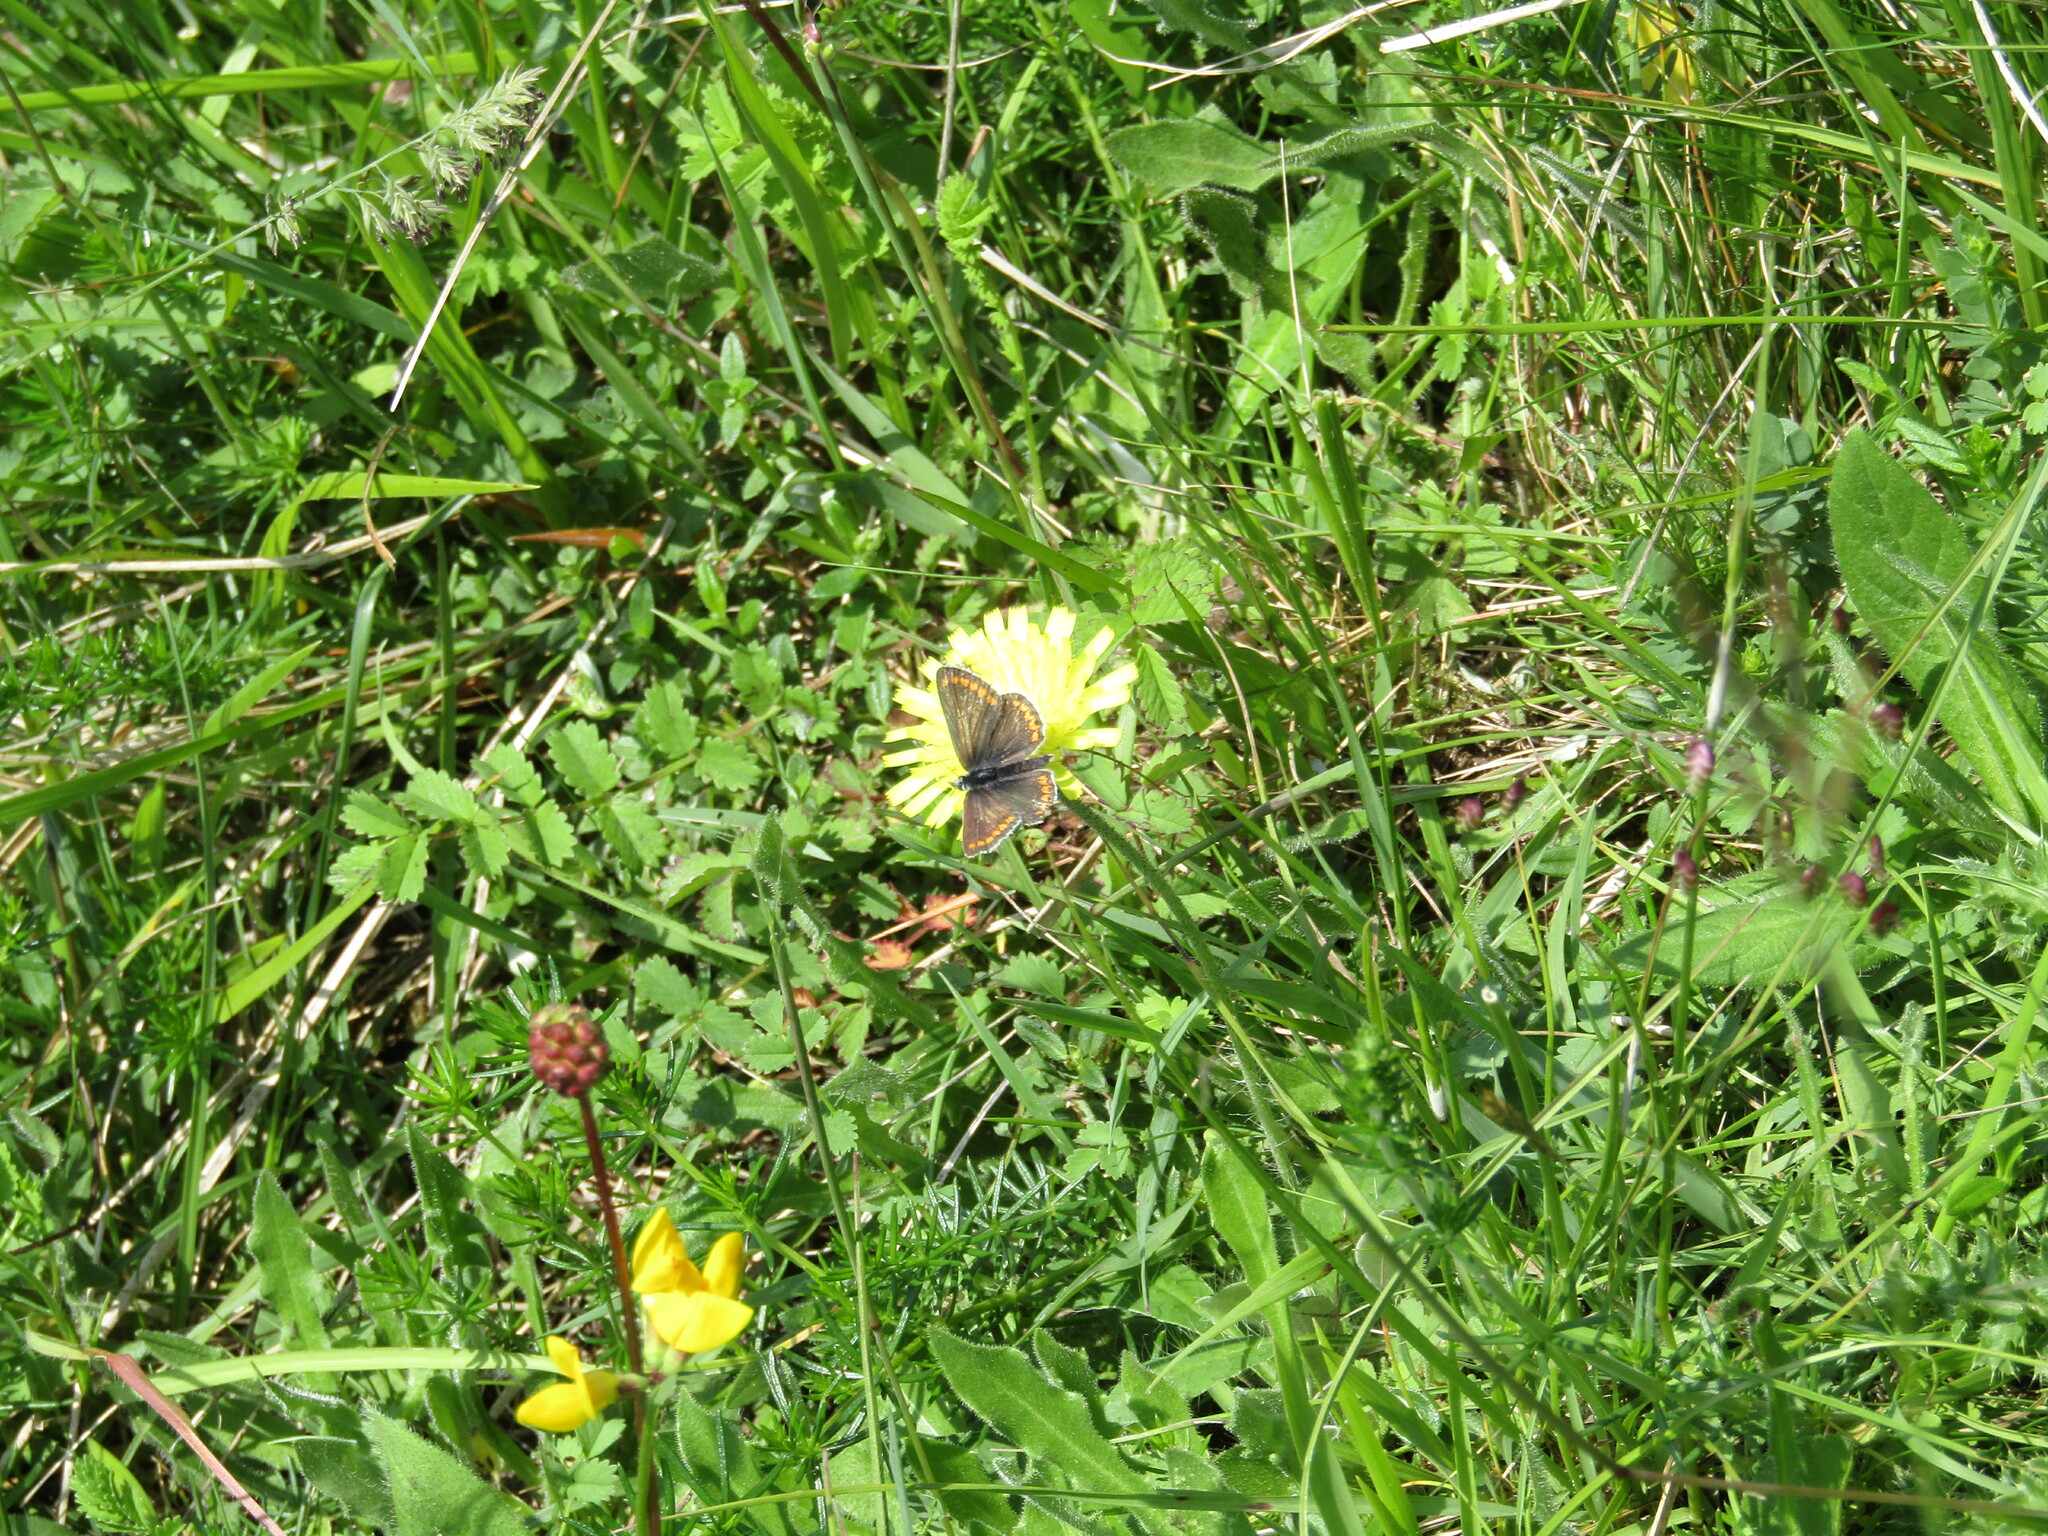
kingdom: Animalia
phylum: Arthropoda
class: Insecta
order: Lepidoptera
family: Lycaenidae
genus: Aricia
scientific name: Aricia agestis
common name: Brown argus
